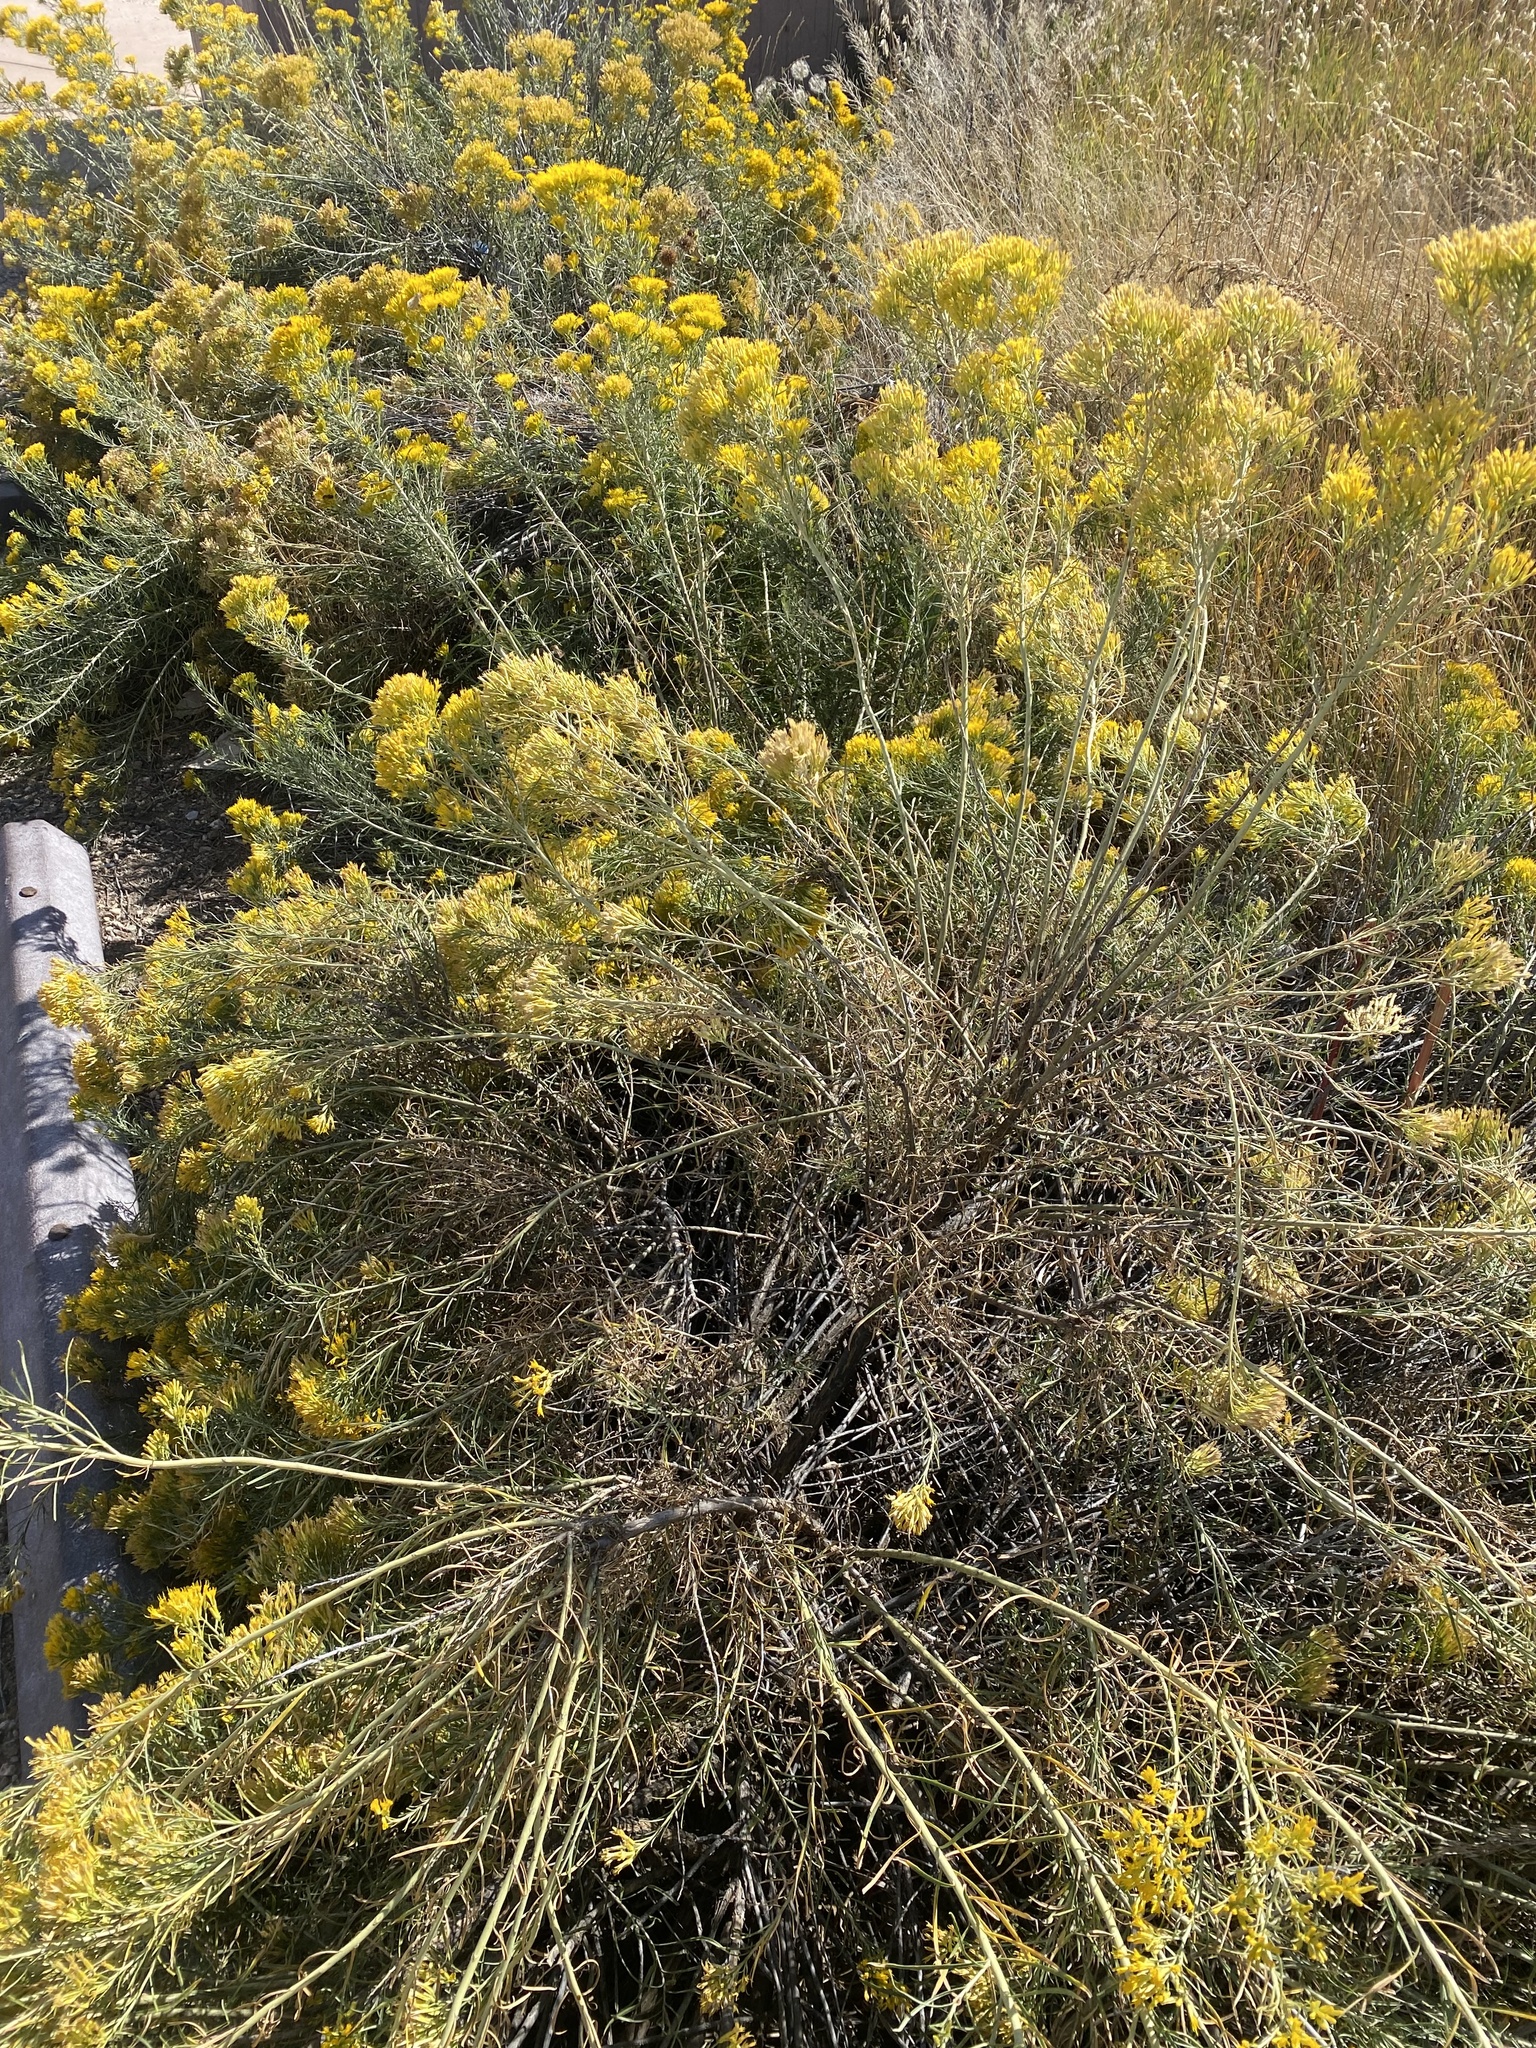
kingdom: Plantae
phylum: Tracheophyta
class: Magnoliopsida
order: Asterales
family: Asteraceae
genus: Ericameria
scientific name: Ericameria nauseosa
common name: Rubber rabbitbrush
